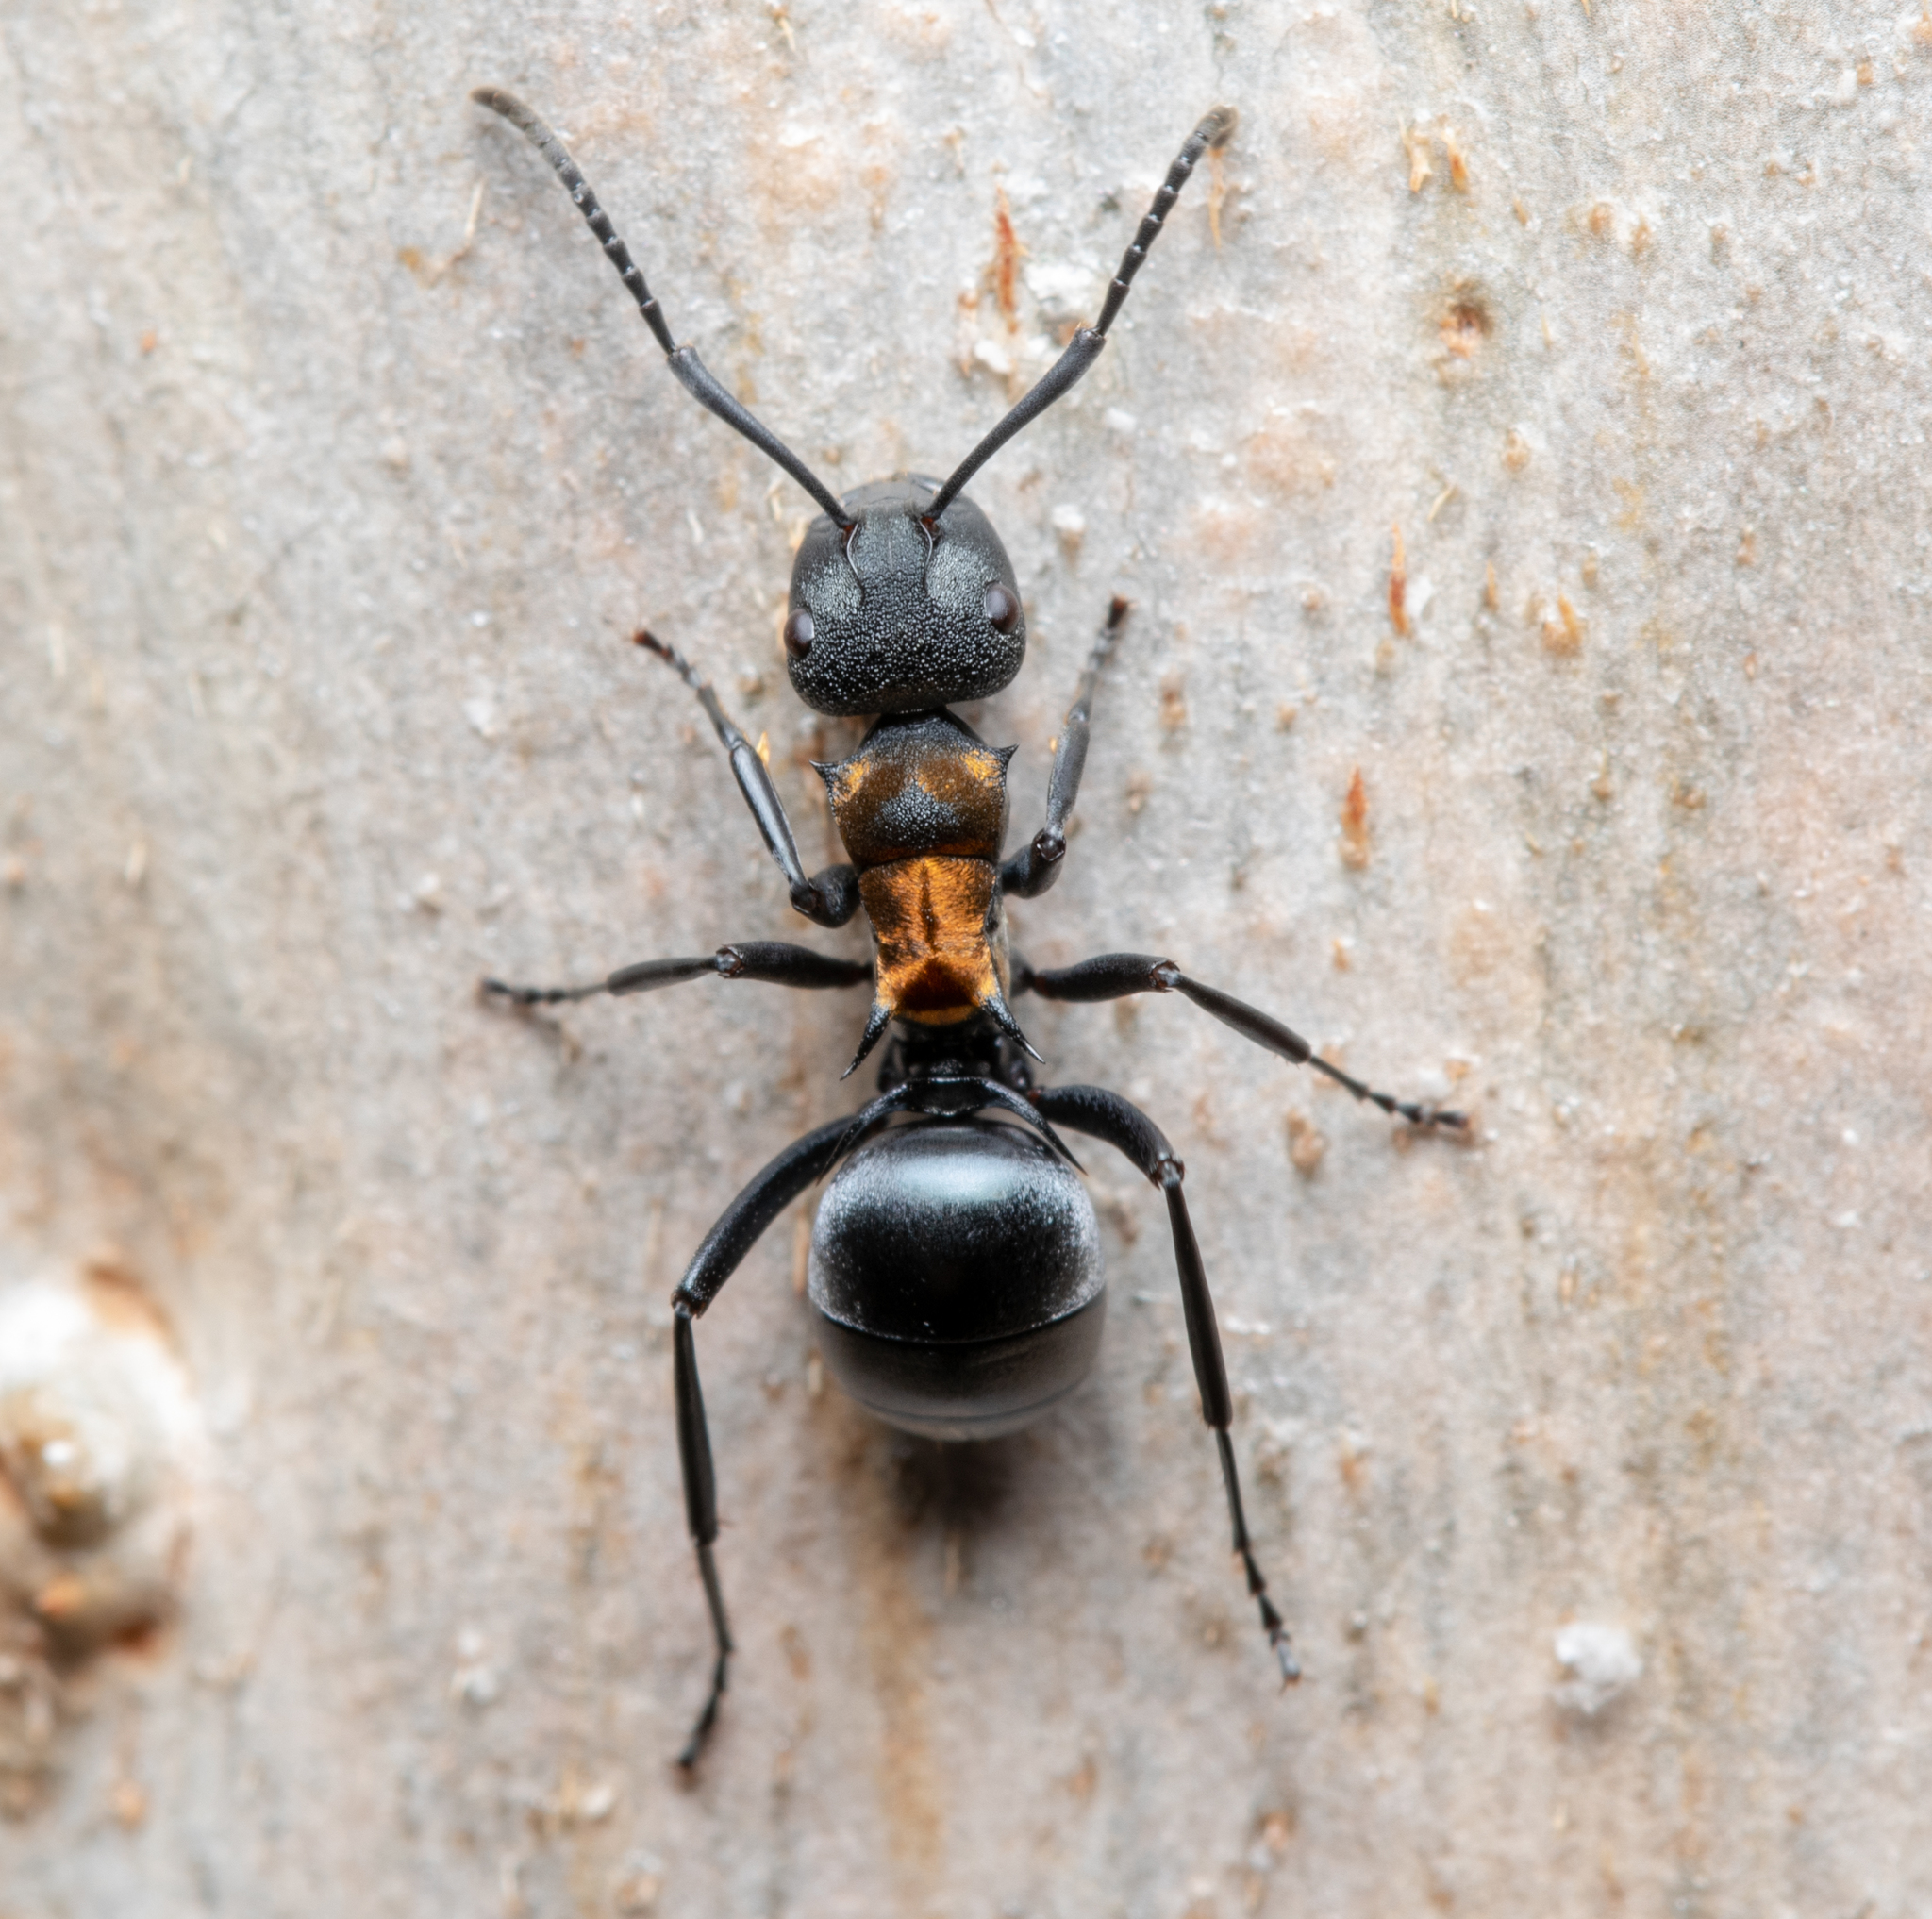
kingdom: Animalia
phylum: Arthropoda
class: Insecta
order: Hymenoptera
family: Formicidae
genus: Polyrhachis
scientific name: Polyrhachis ornata
